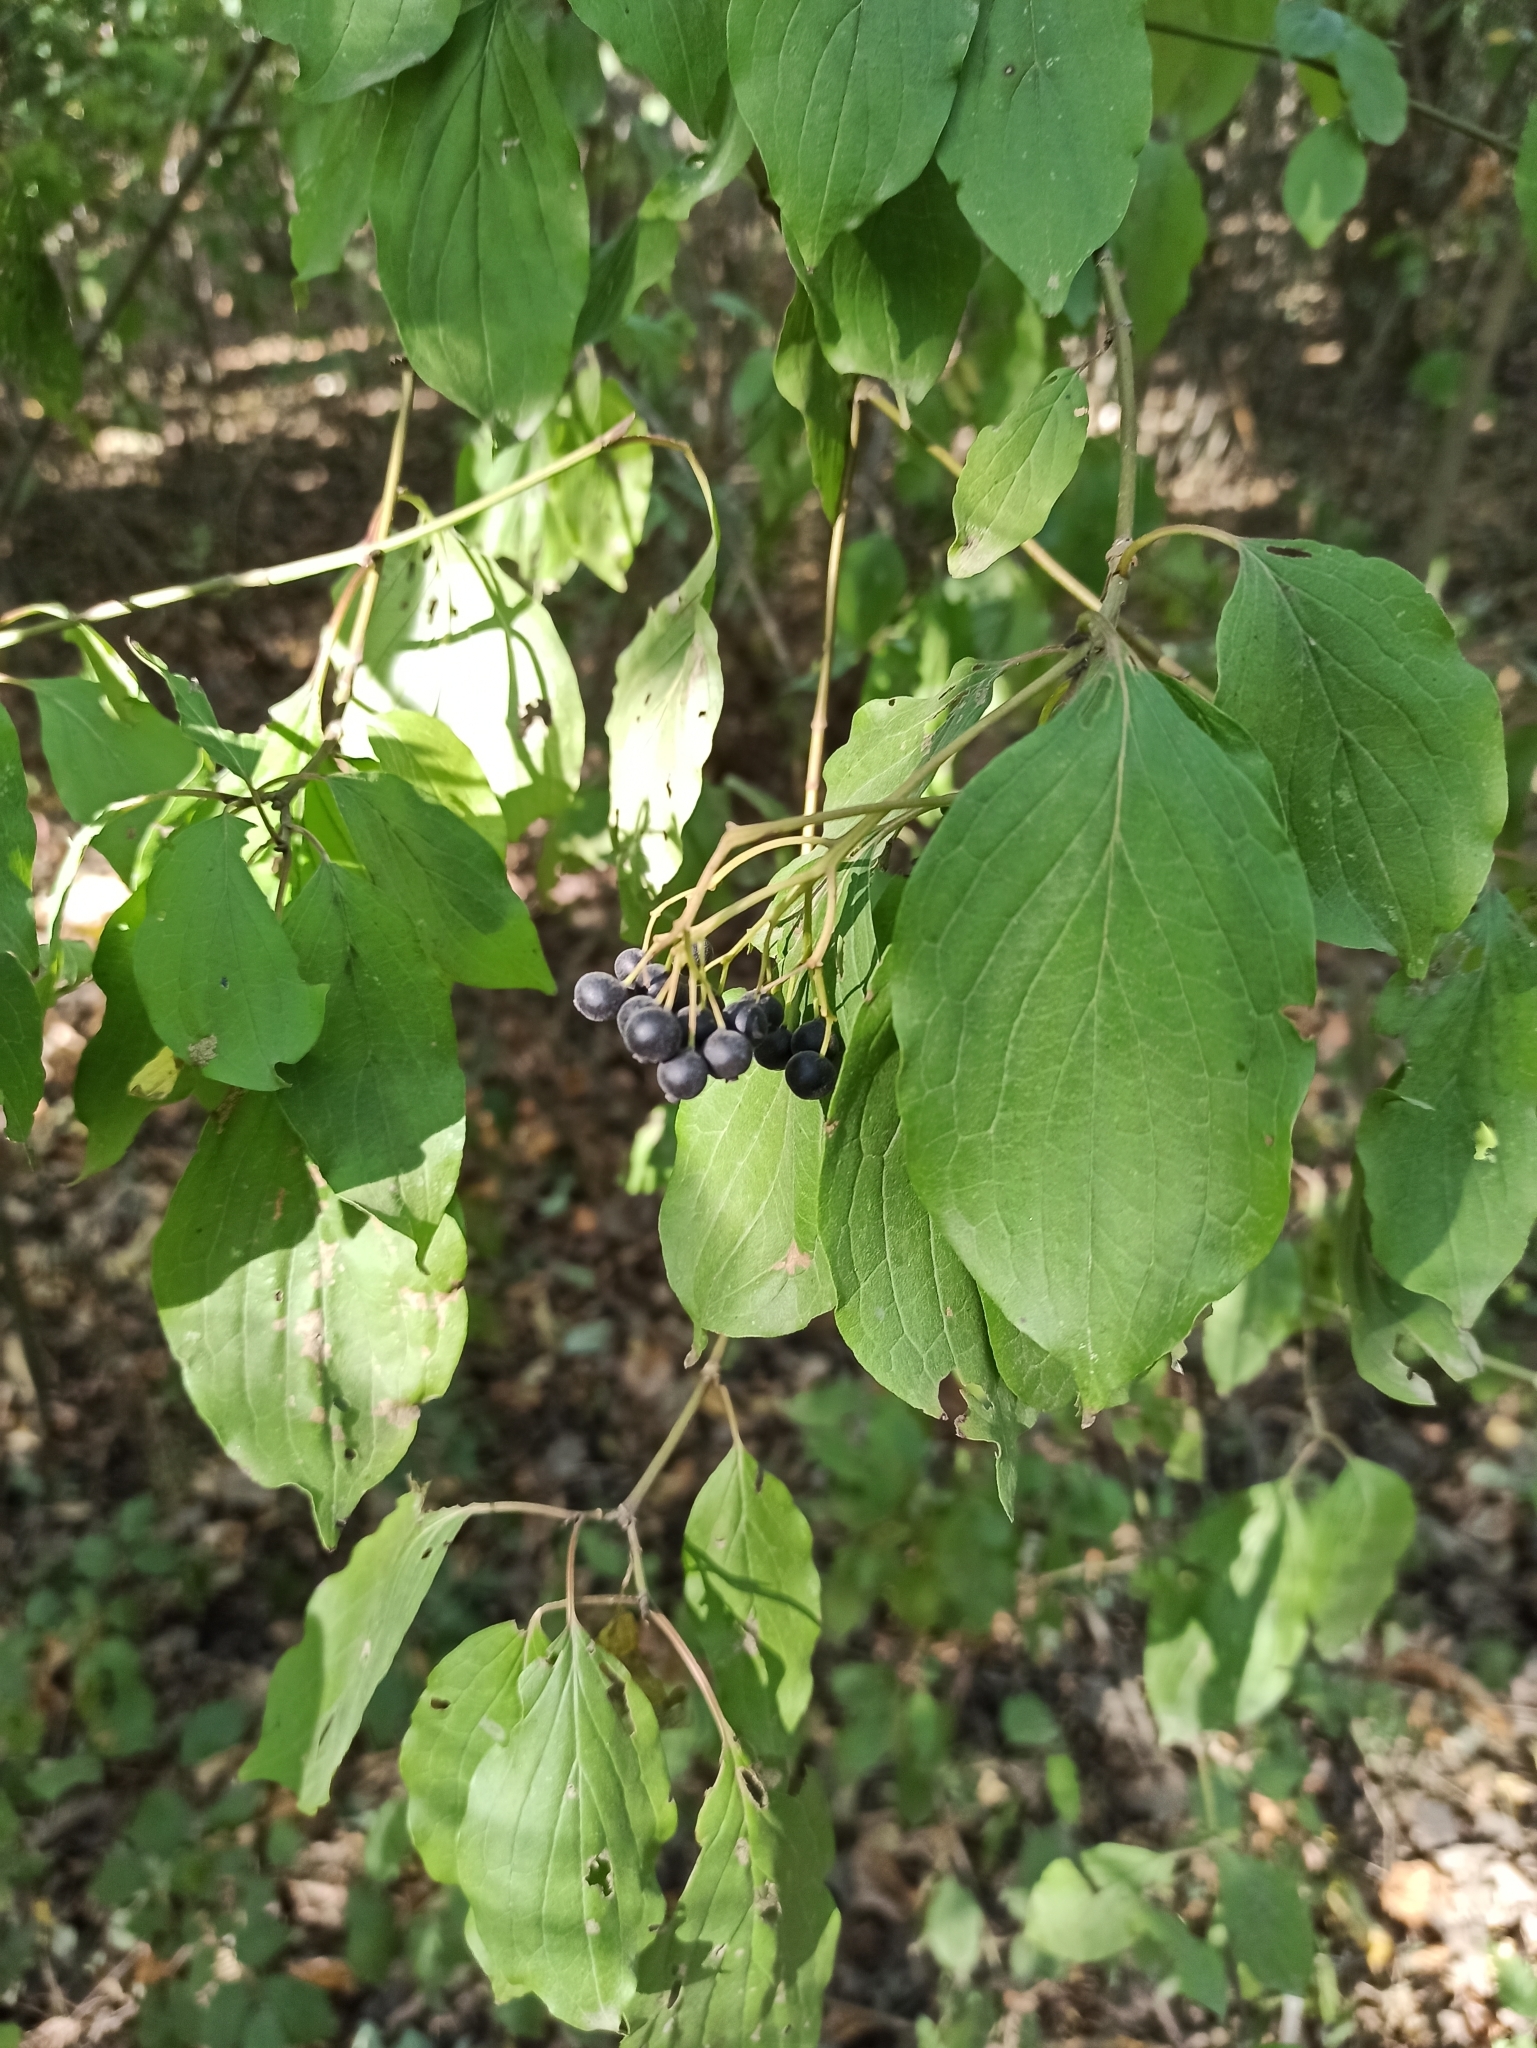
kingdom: Plantae
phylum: Tracheophyta
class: Magnoliopsida
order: Cornales
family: Cornaceae
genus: Cornus
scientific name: Cornus sanguinea
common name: Dogwood
